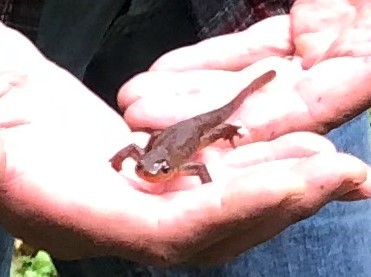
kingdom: Animalia
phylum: Chordata
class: Amphibia
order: Caudata
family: Salamandridae
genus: Taricha
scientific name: Taricha granulosa
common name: Roughskin newt
